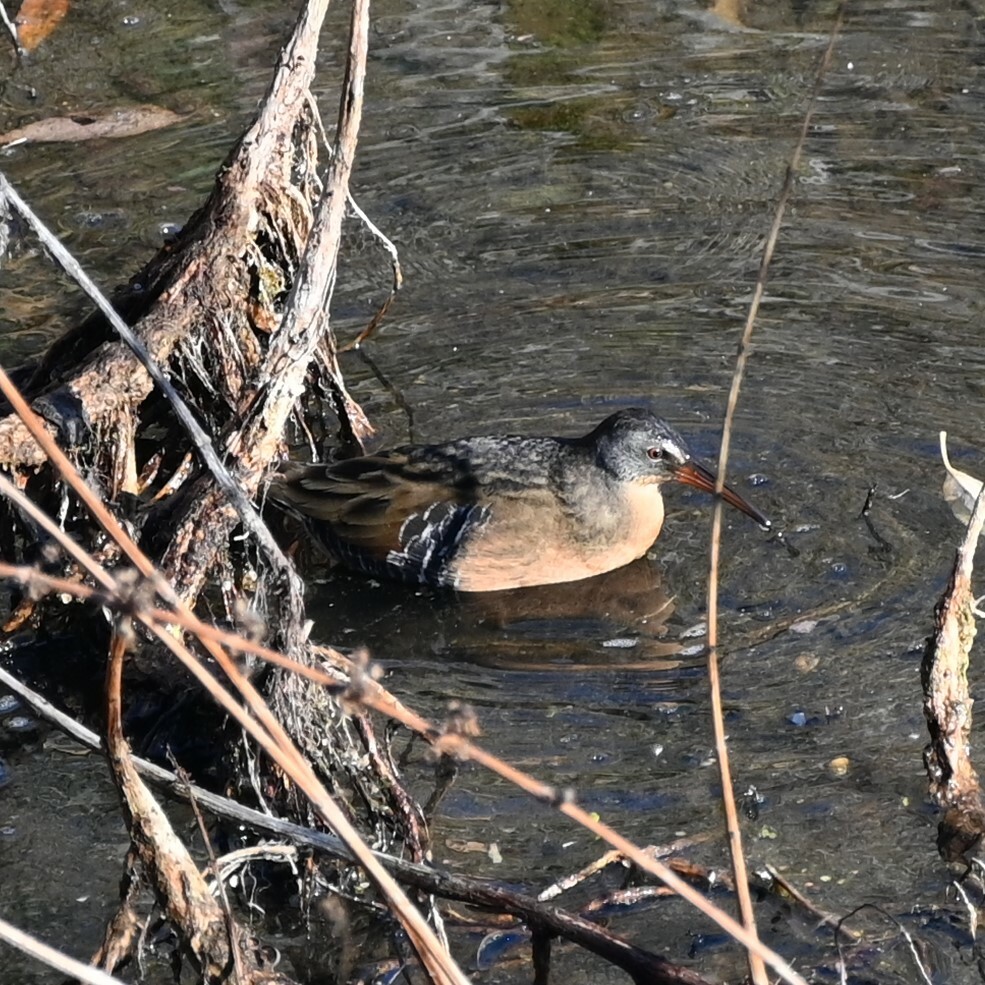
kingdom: Animalia
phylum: Chordata
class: Aves
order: Gruiformes
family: Rallidae
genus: Rallus
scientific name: Rallus limicola
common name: Virginia rail
